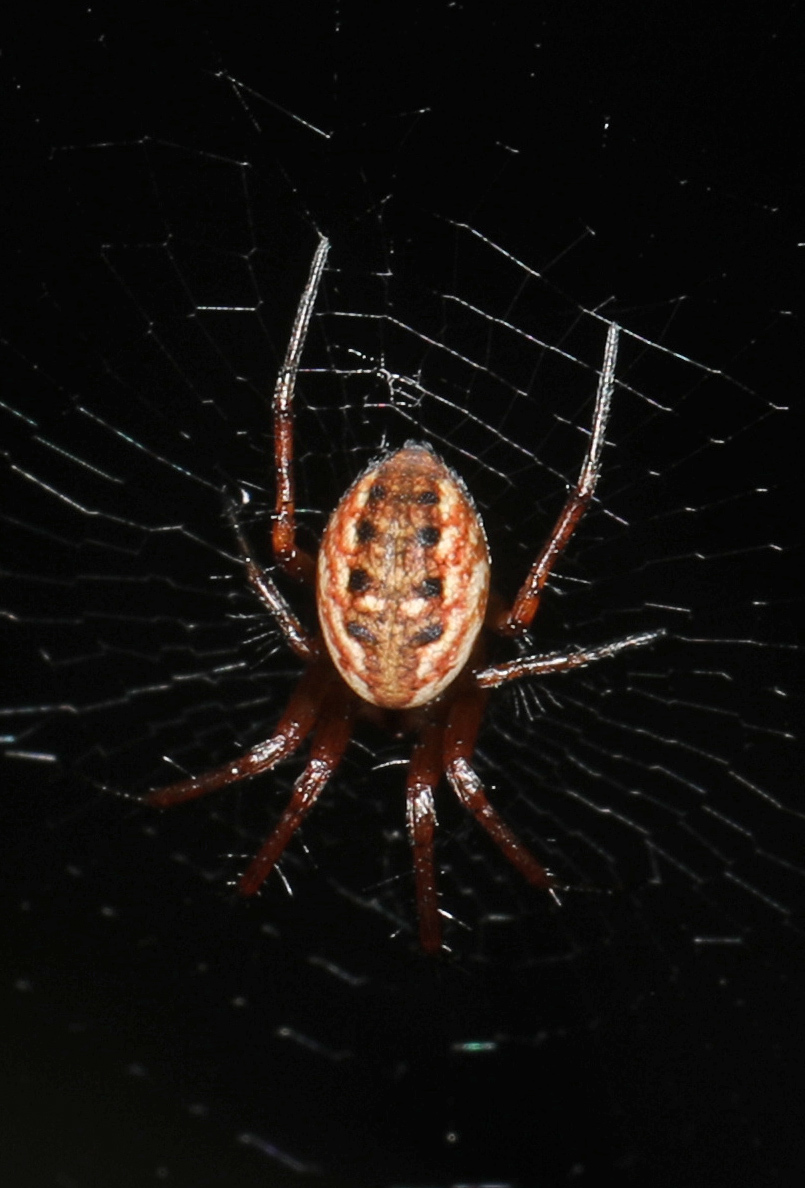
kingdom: Animalia
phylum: Arthropoda
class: Arachnida
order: Araneae
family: Araneidae
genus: Mangora
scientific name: Mangora placida
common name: Tuft-legged orbweaver
